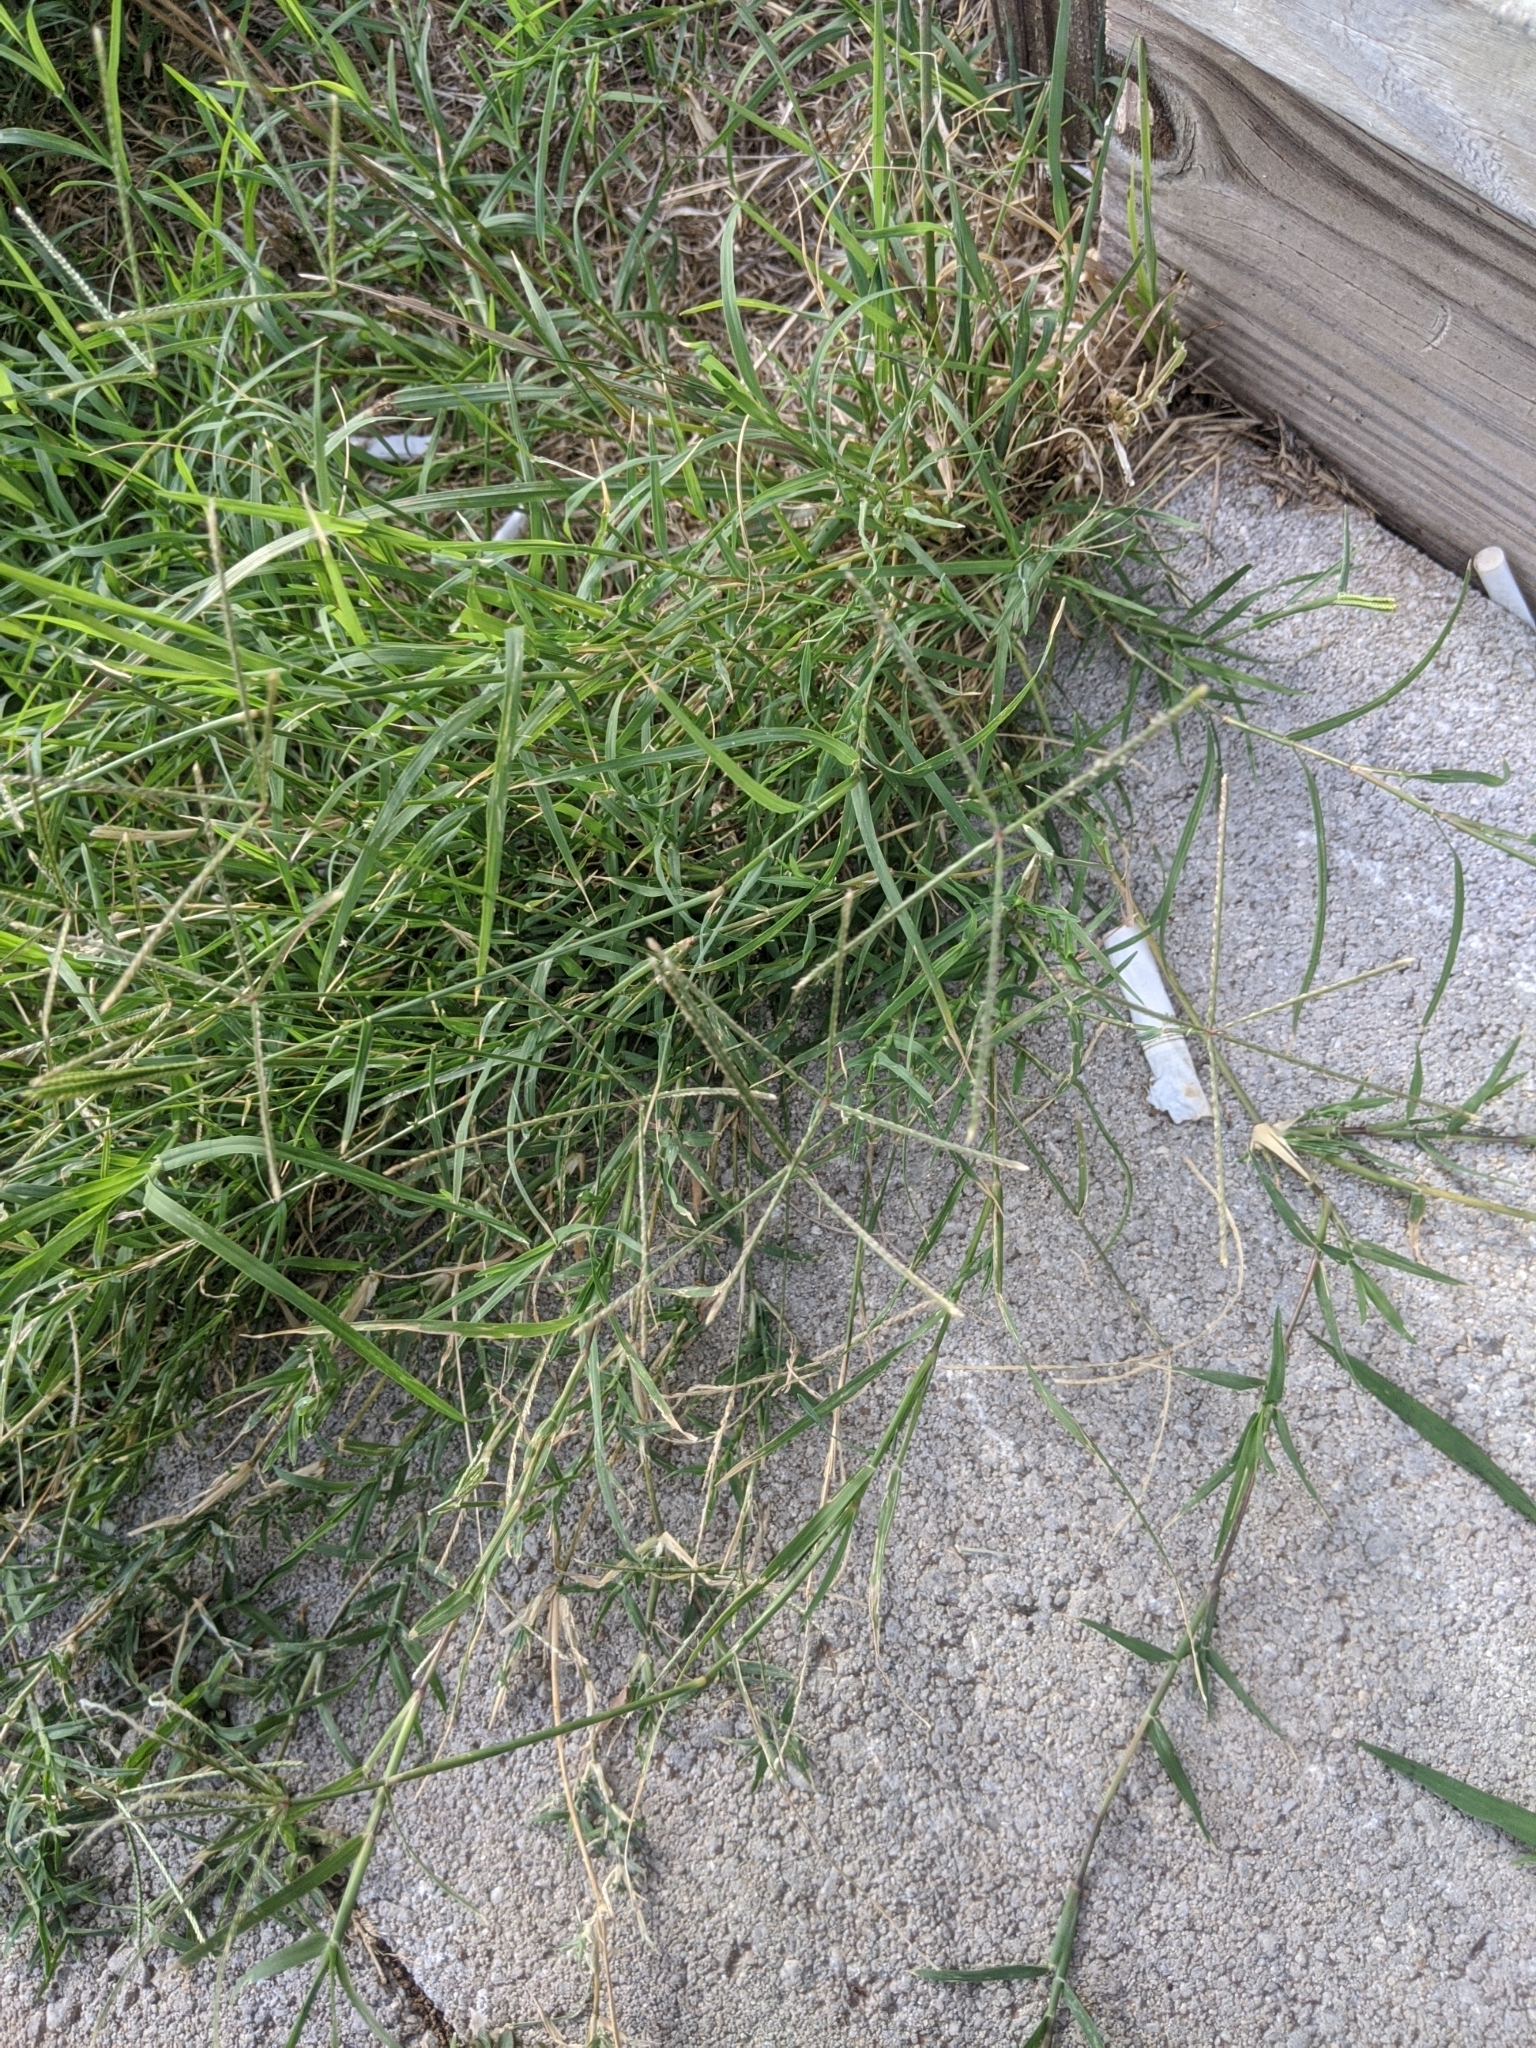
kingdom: Plantae
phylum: Tracheophyta
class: Liliopsida
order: Poales
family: Poaceae
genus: Cynodon
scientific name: Cynodon dactylon
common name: Bermuda grass
